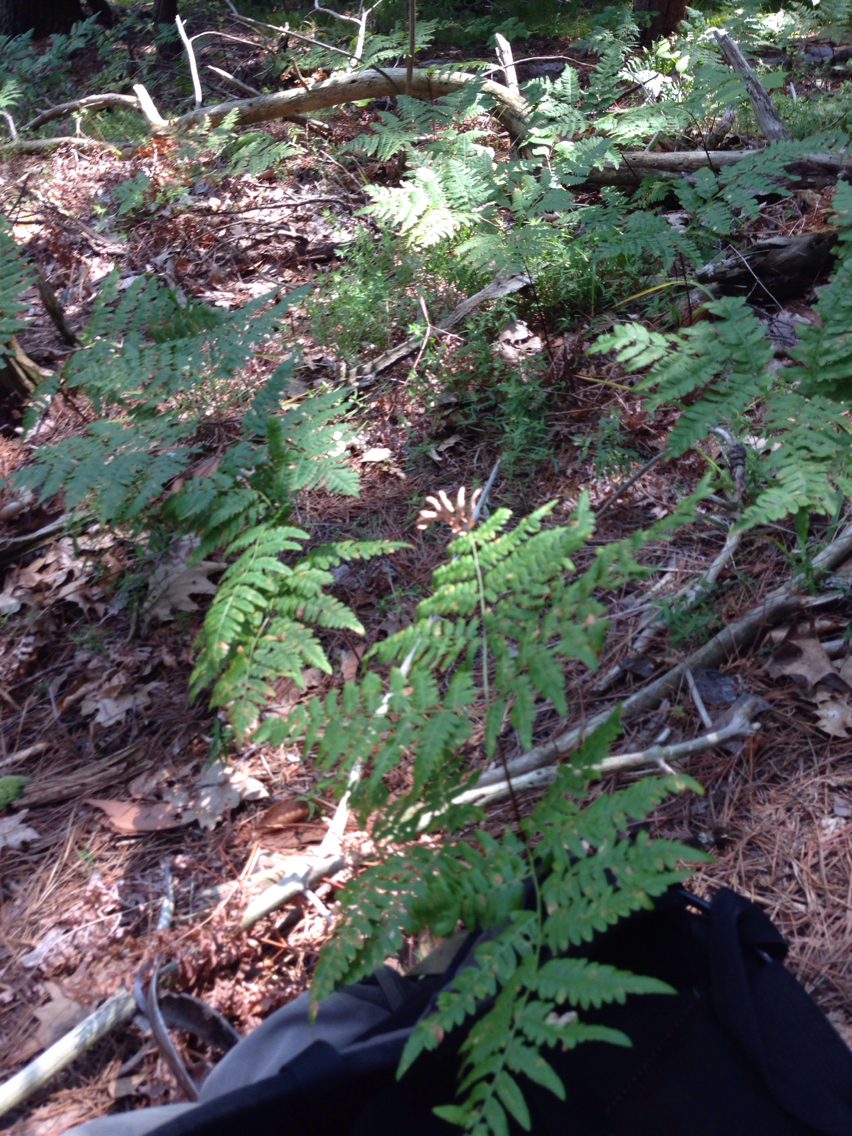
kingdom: Plantae
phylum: Tracheophyta
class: Polypodiopsida
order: Polypodiales
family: Dennstaedtiaceae
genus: Pteridium
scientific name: Pteridium aquilinum
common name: Bracken
